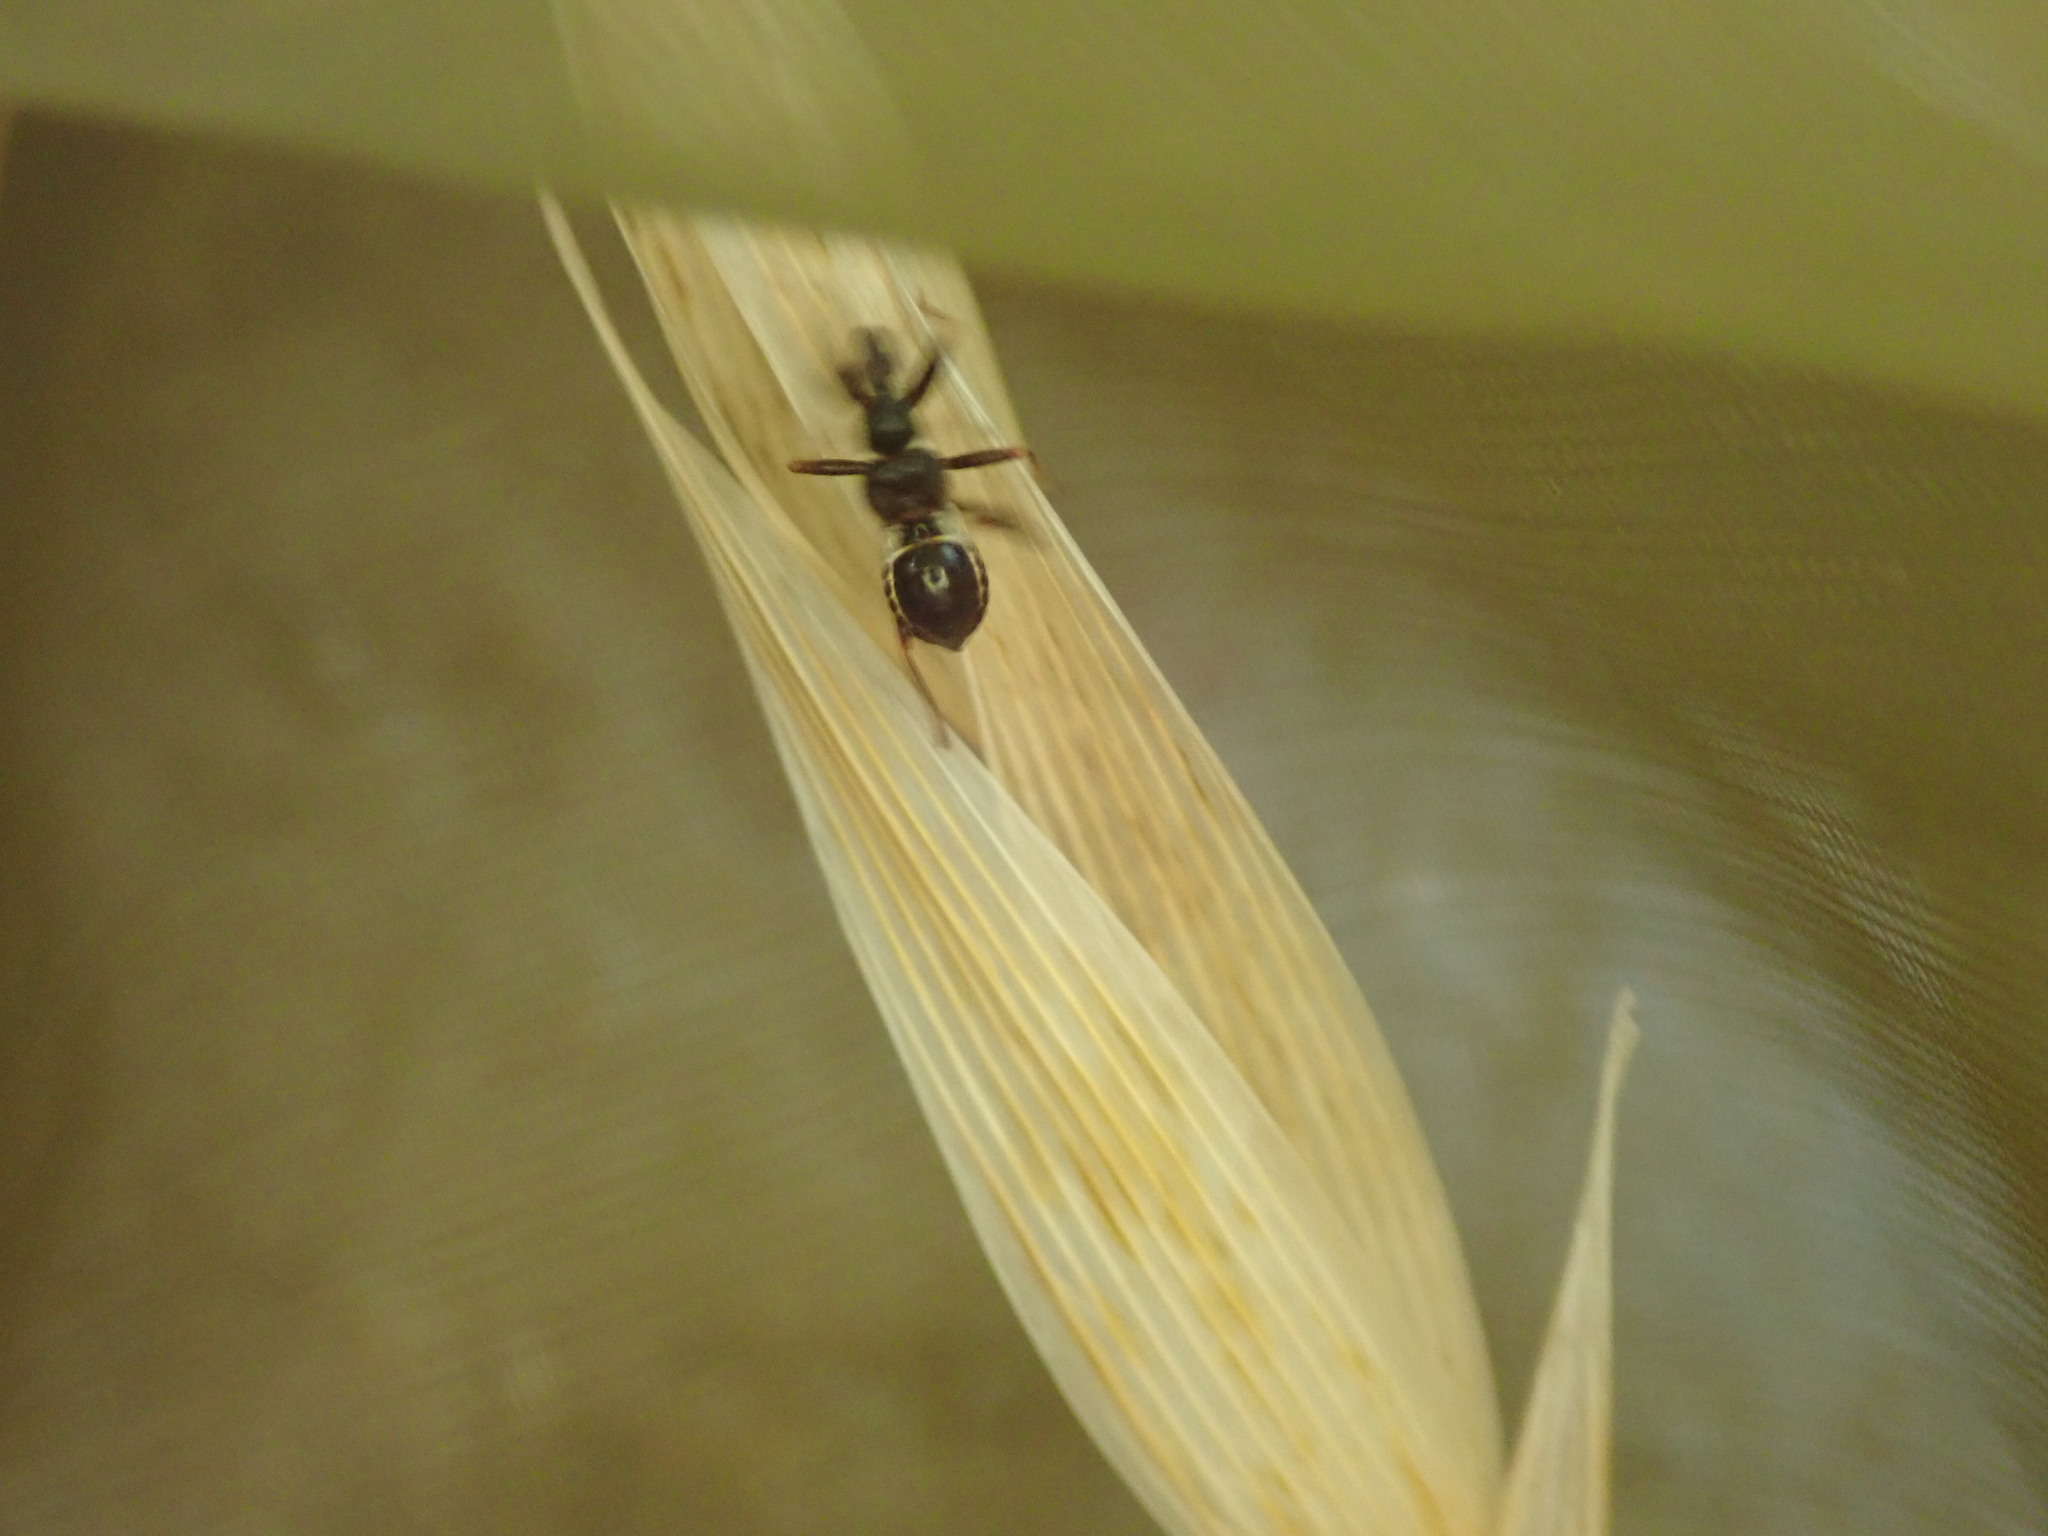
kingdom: Animalia
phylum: Arthropoda
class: Insecta
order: Hemiptera
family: Nabidae
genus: Himacerus
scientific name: Himacerus mirmicoides
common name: Ant damsel bug
